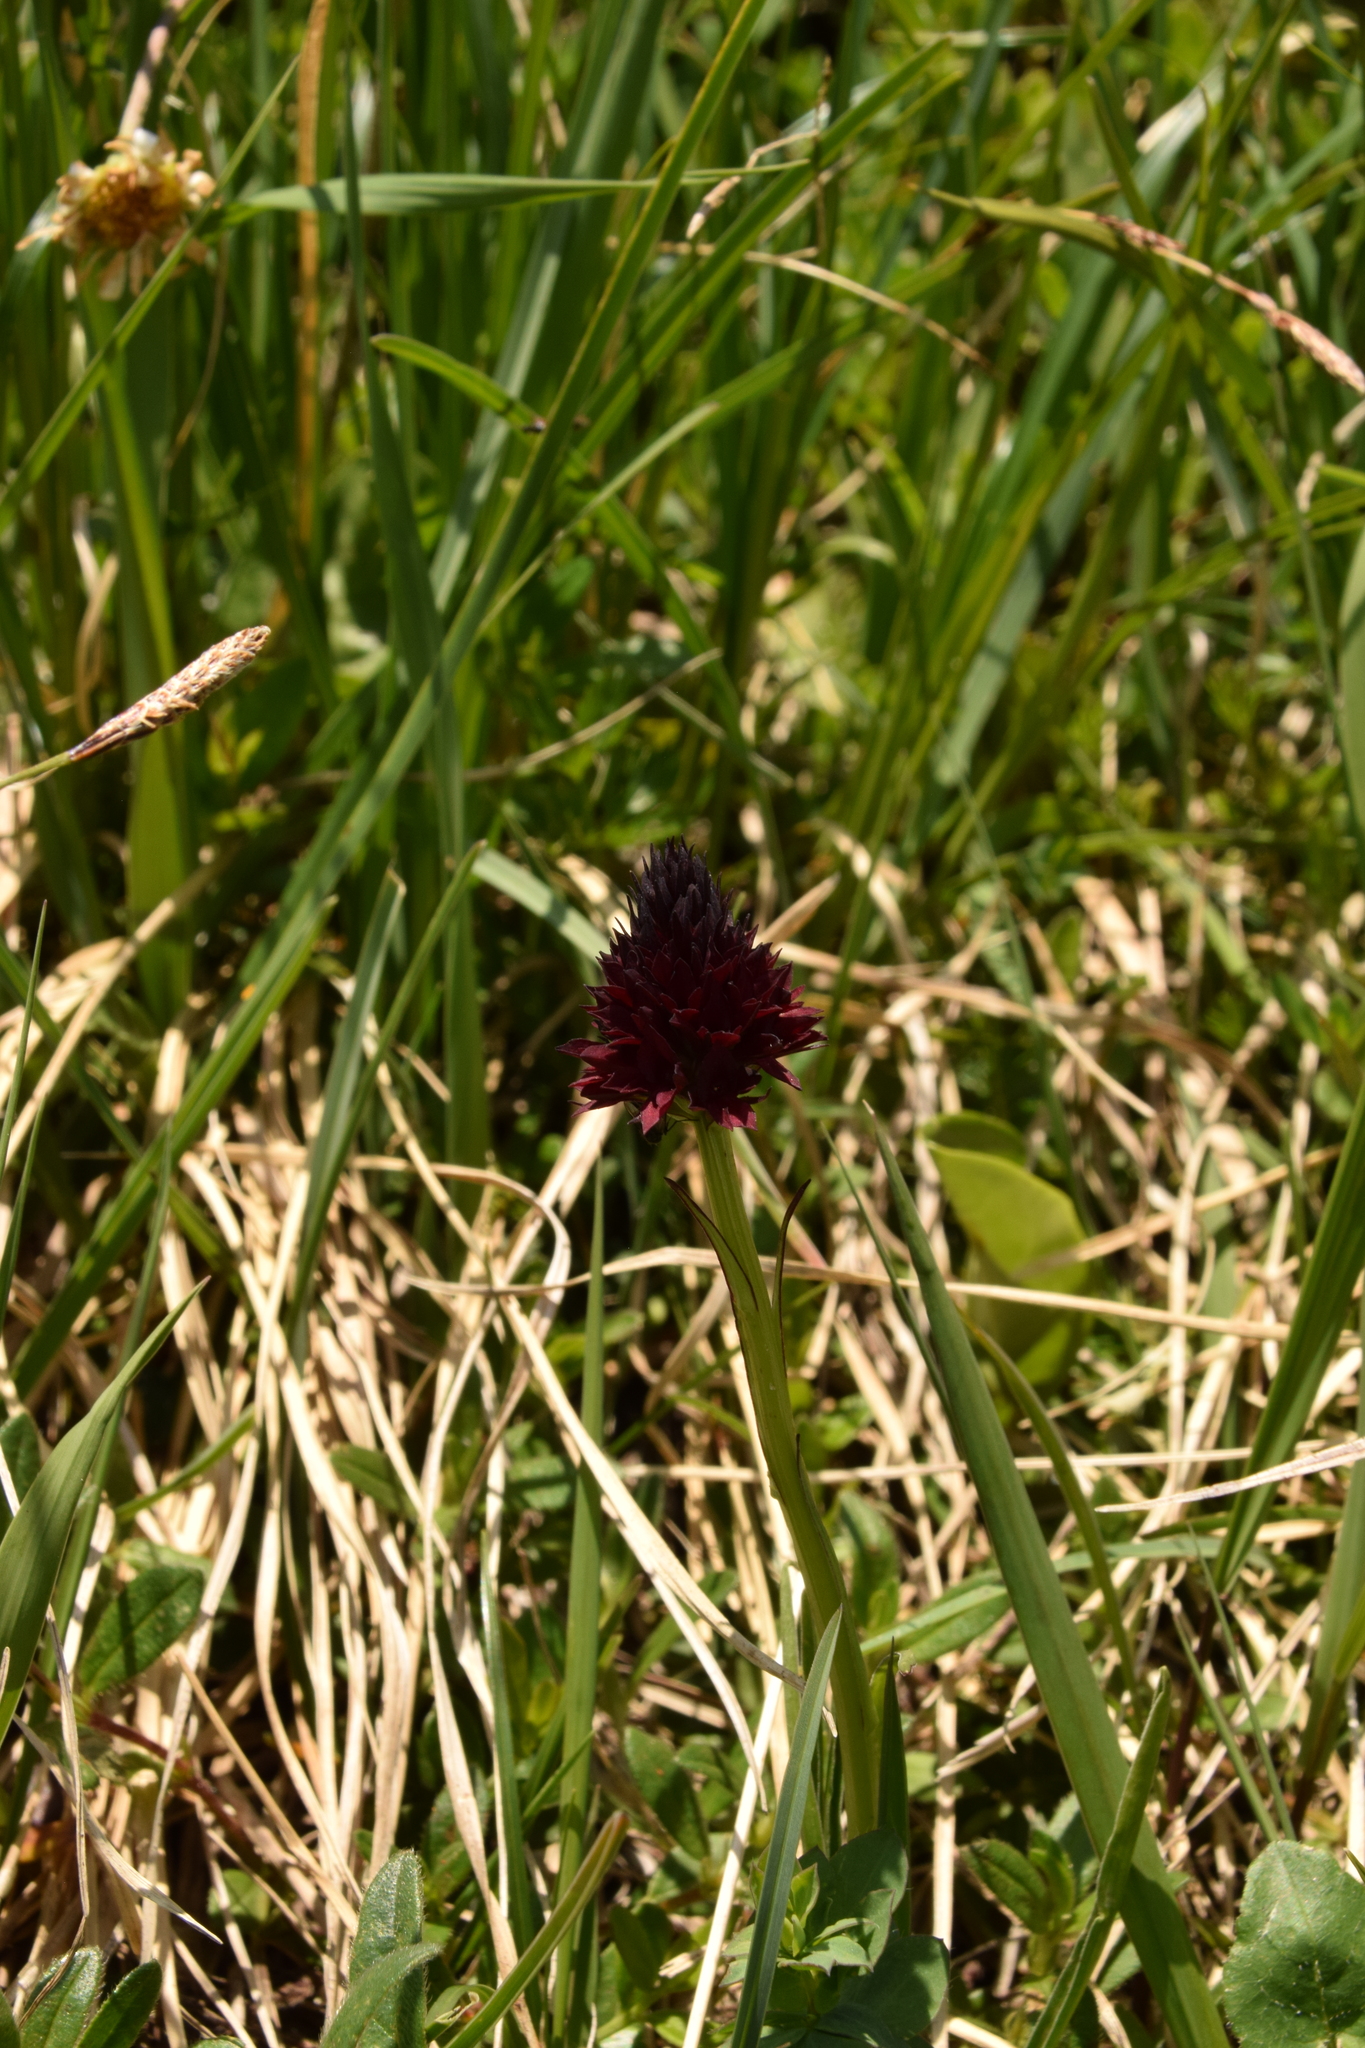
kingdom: Plantae
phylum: Tracheophyta
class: Liliopsida
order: Asparagales
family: Orchidaceae
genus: Gymnadenia
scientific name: Gymnadenia rhellicani
